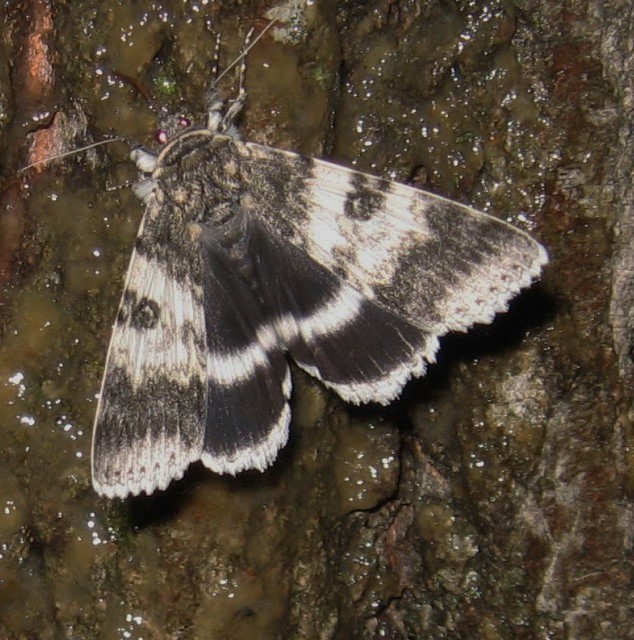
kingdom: Animalia
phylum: Arthropoda
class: Insecta
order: Lepidoptera
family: Erebidae
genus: Catocala
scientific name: Catocala relicta
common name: White underwing
